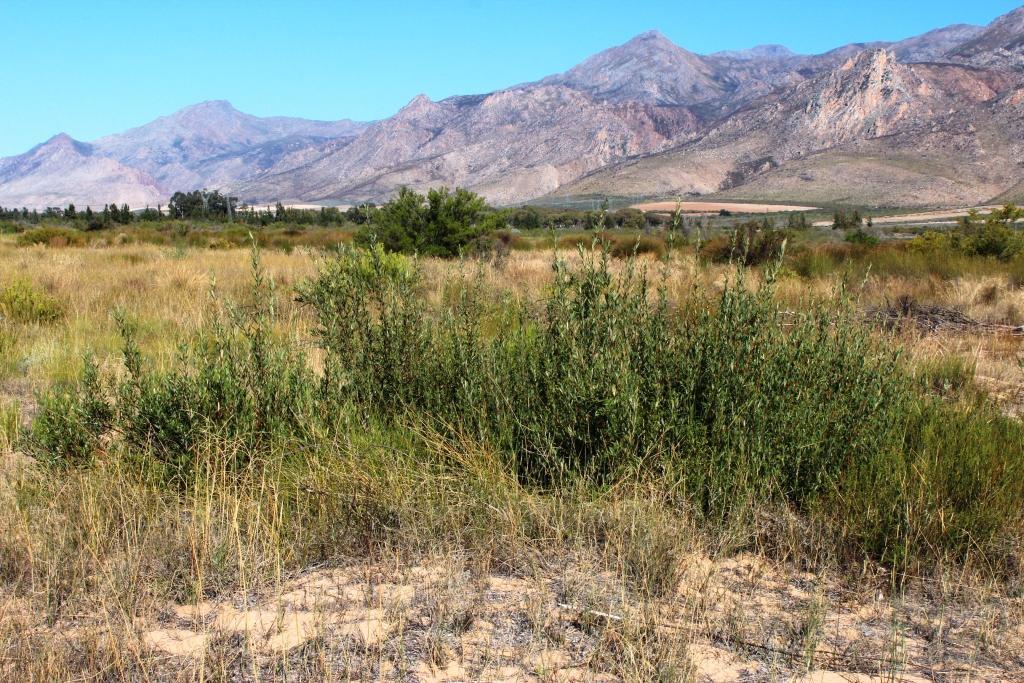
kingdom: Plantae
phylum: Tracheophyta
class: Magnoliopsida
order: Sapindales
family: Anacardiaceae
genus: Searsia
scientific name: Searsia angustifolia
